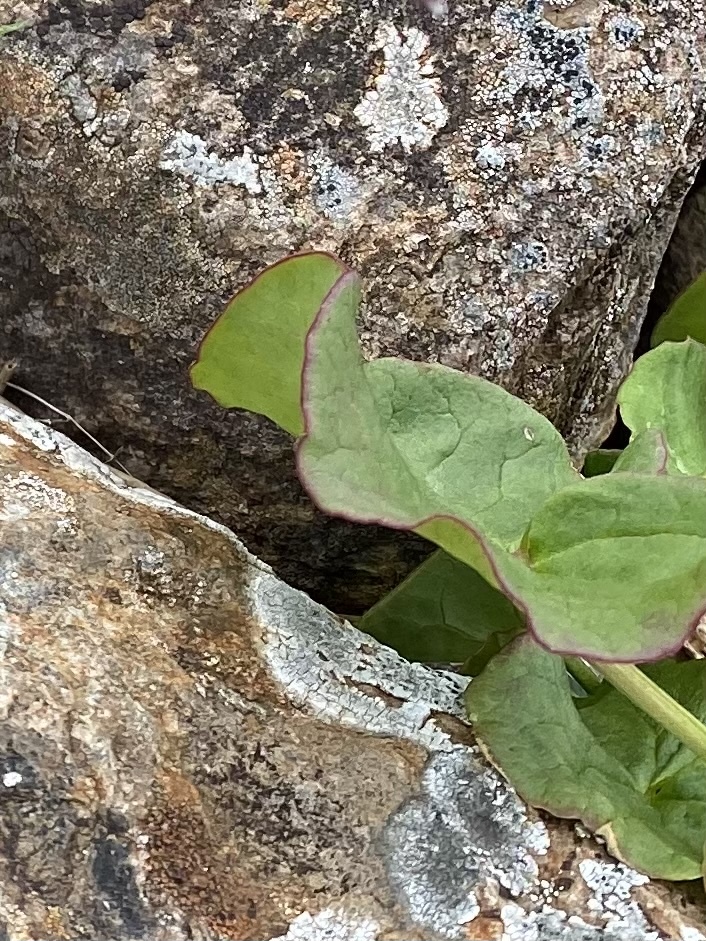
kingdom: Plantae
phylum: Tracheophyta
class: Magnoliopsida
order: Caryophyllales
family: Polygonaceae
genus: Oxyria
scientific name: Oxyria digyna
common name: Alpine mountain-sorrel
